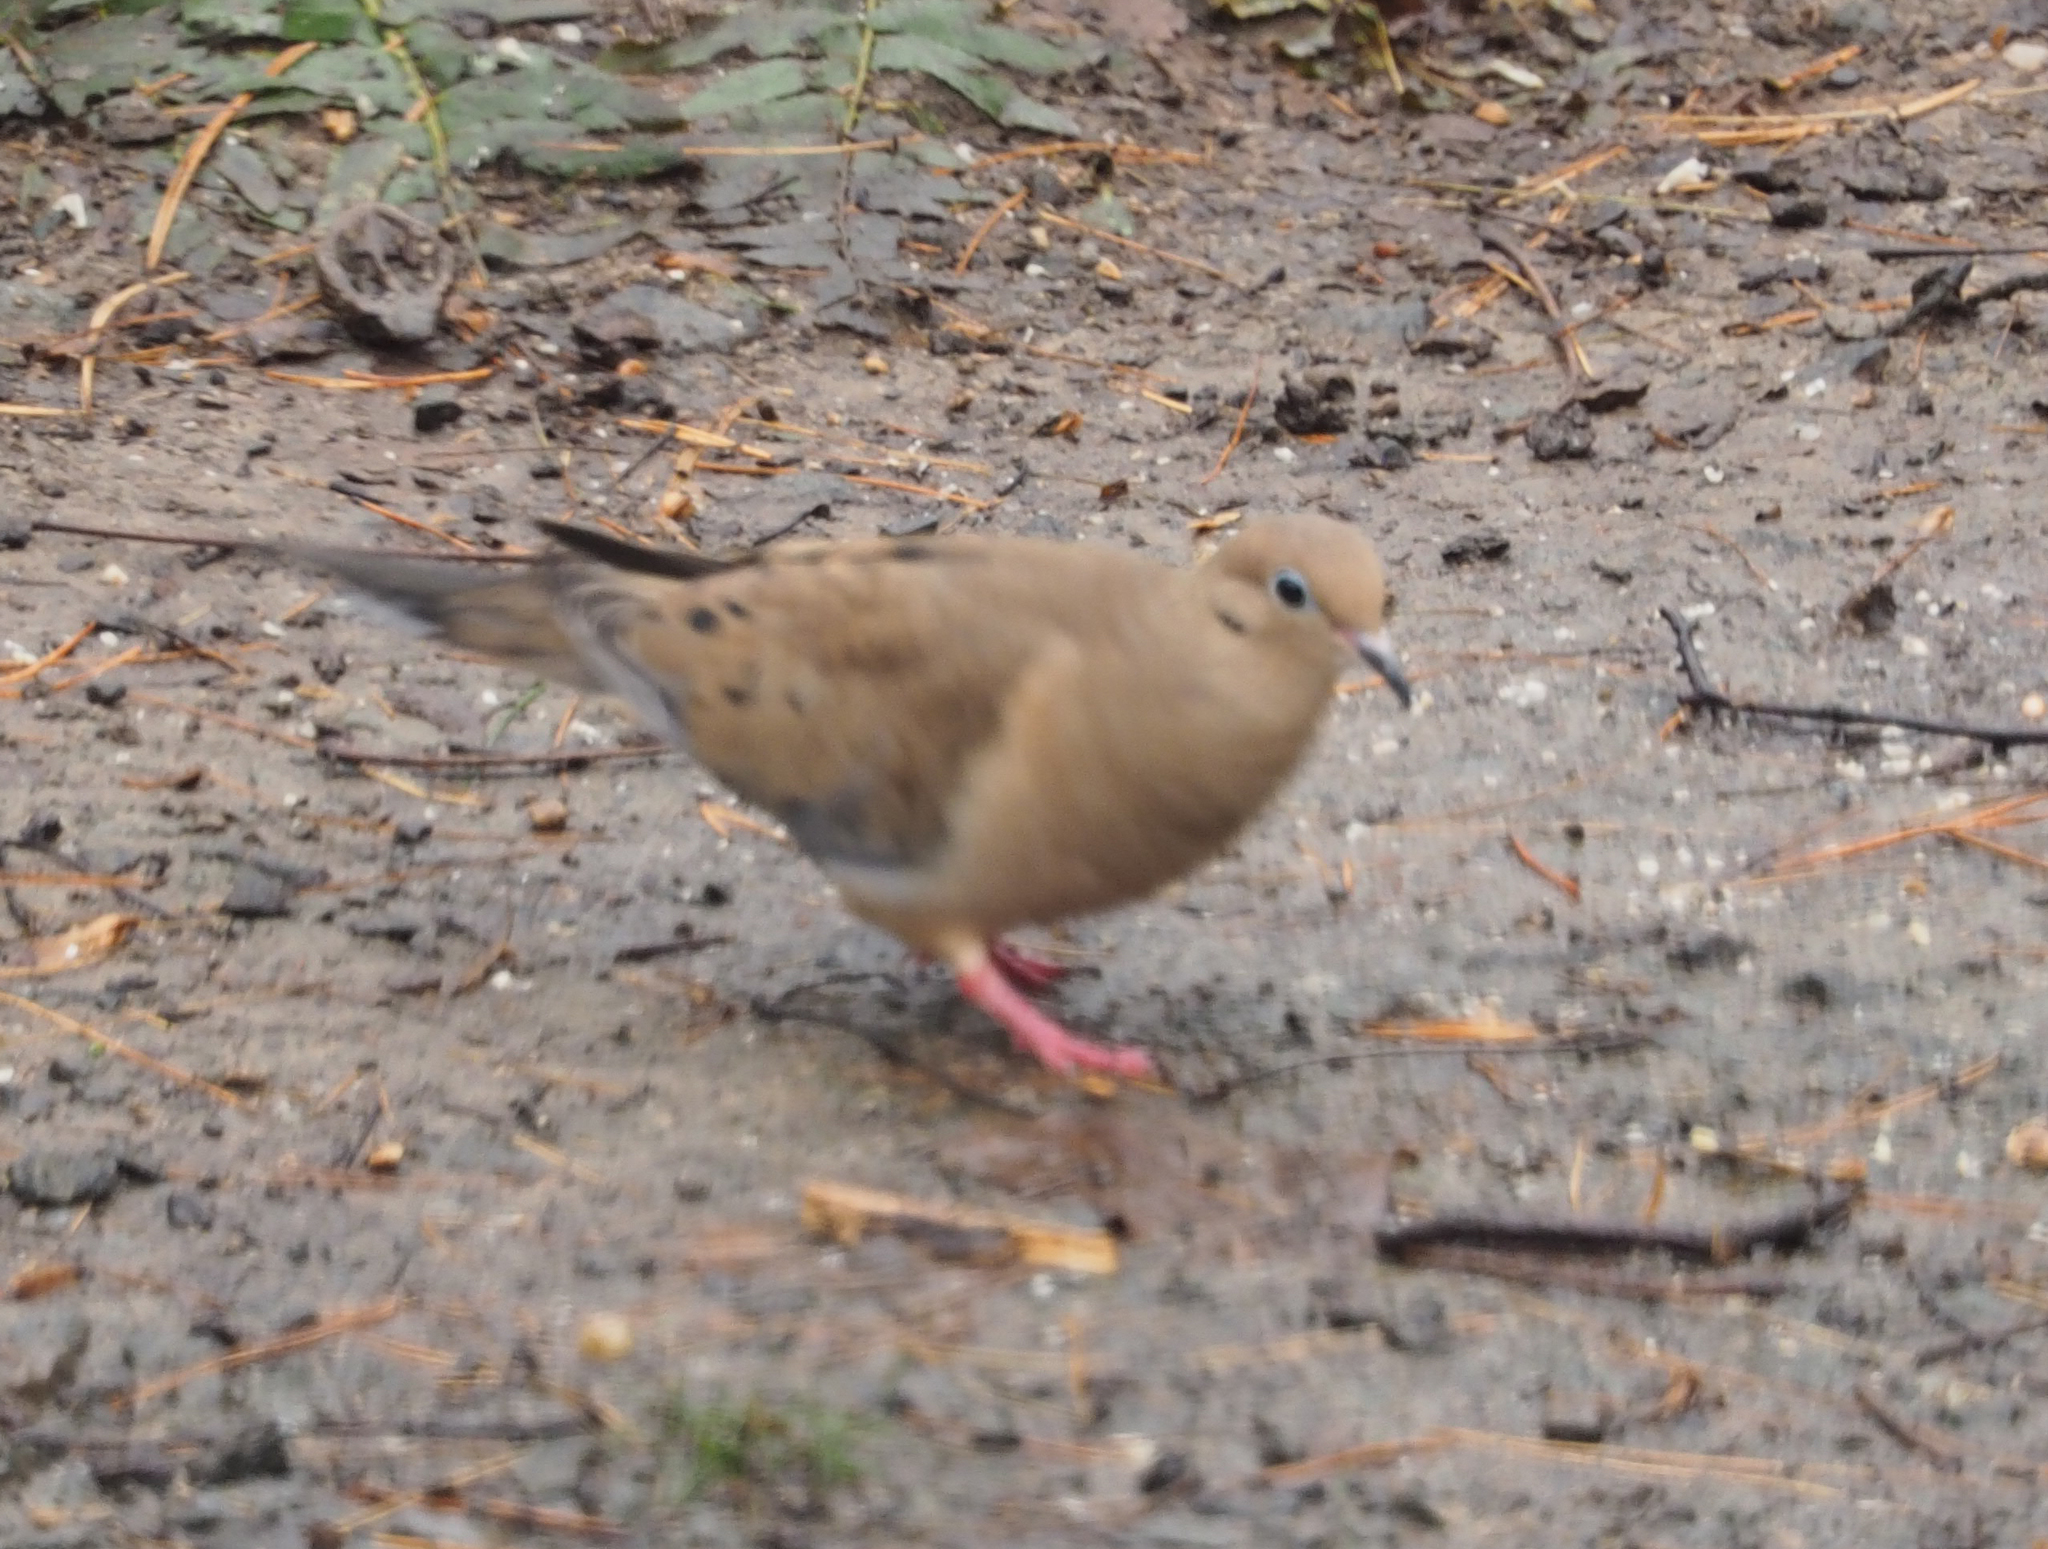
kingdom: Animalia
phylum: Chordata
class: Aves
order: Columbiformes
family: Columbidae
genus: Zenaida
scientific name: Zenaida macroura
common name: Mourning dove
